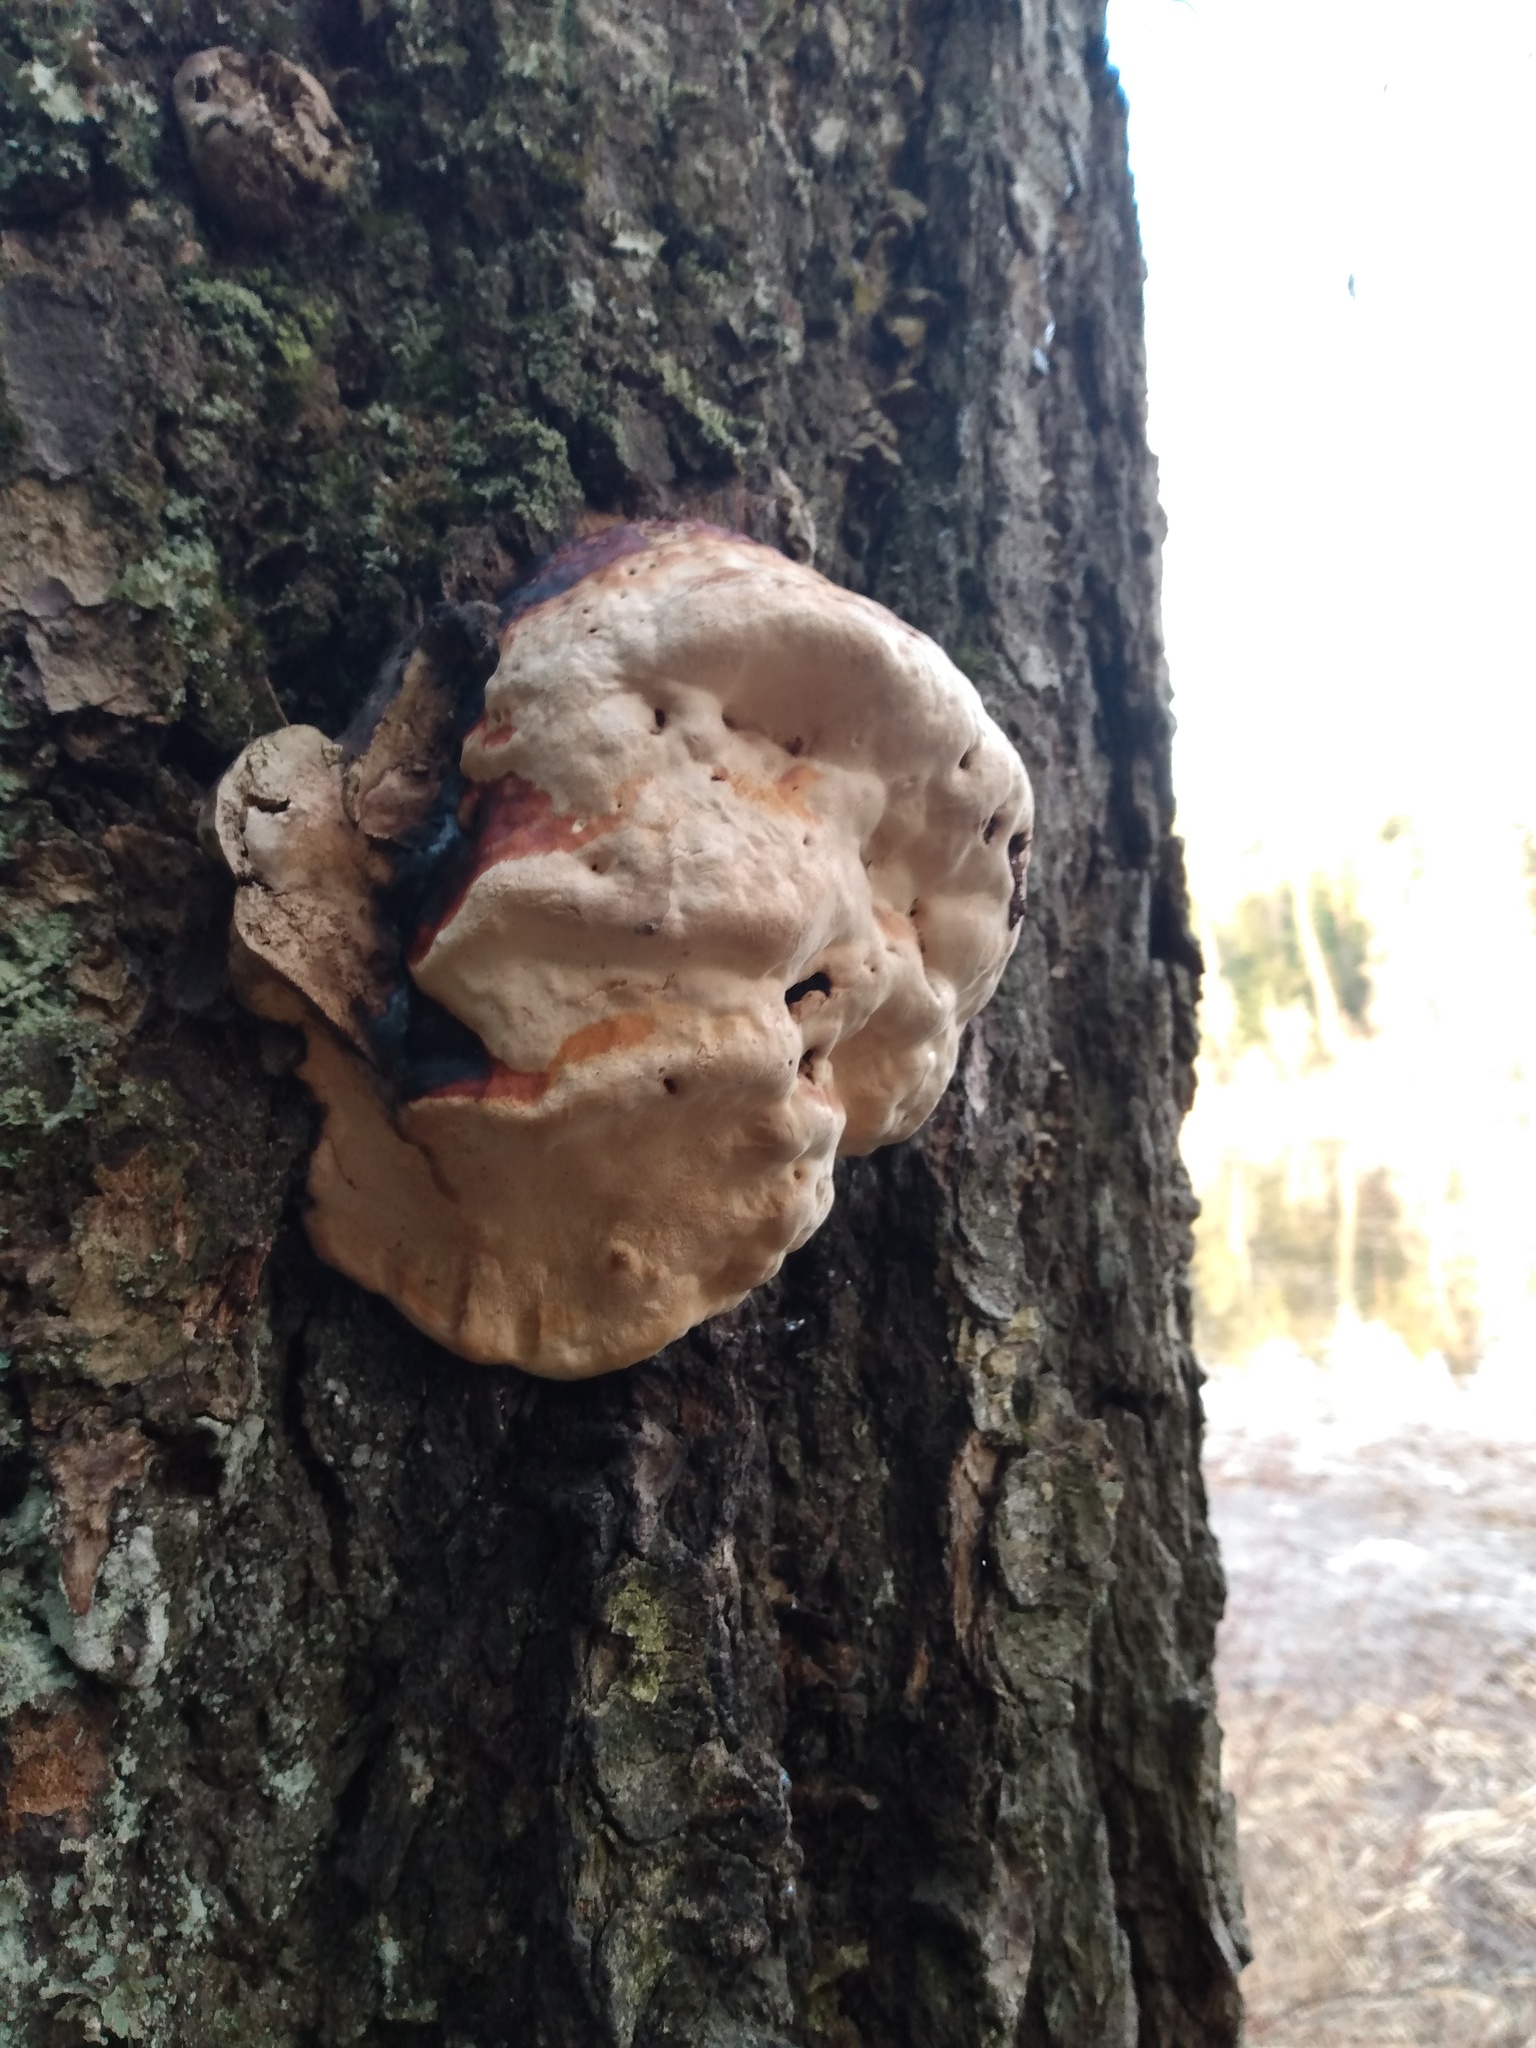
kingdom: Fungi
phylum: Basidiomycota
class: Agaricomycetes
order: Polyporales
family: Fomitopsidaceae
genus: Fomitopsis
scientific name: Fomitopsis mounceae
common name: Northern red belt
